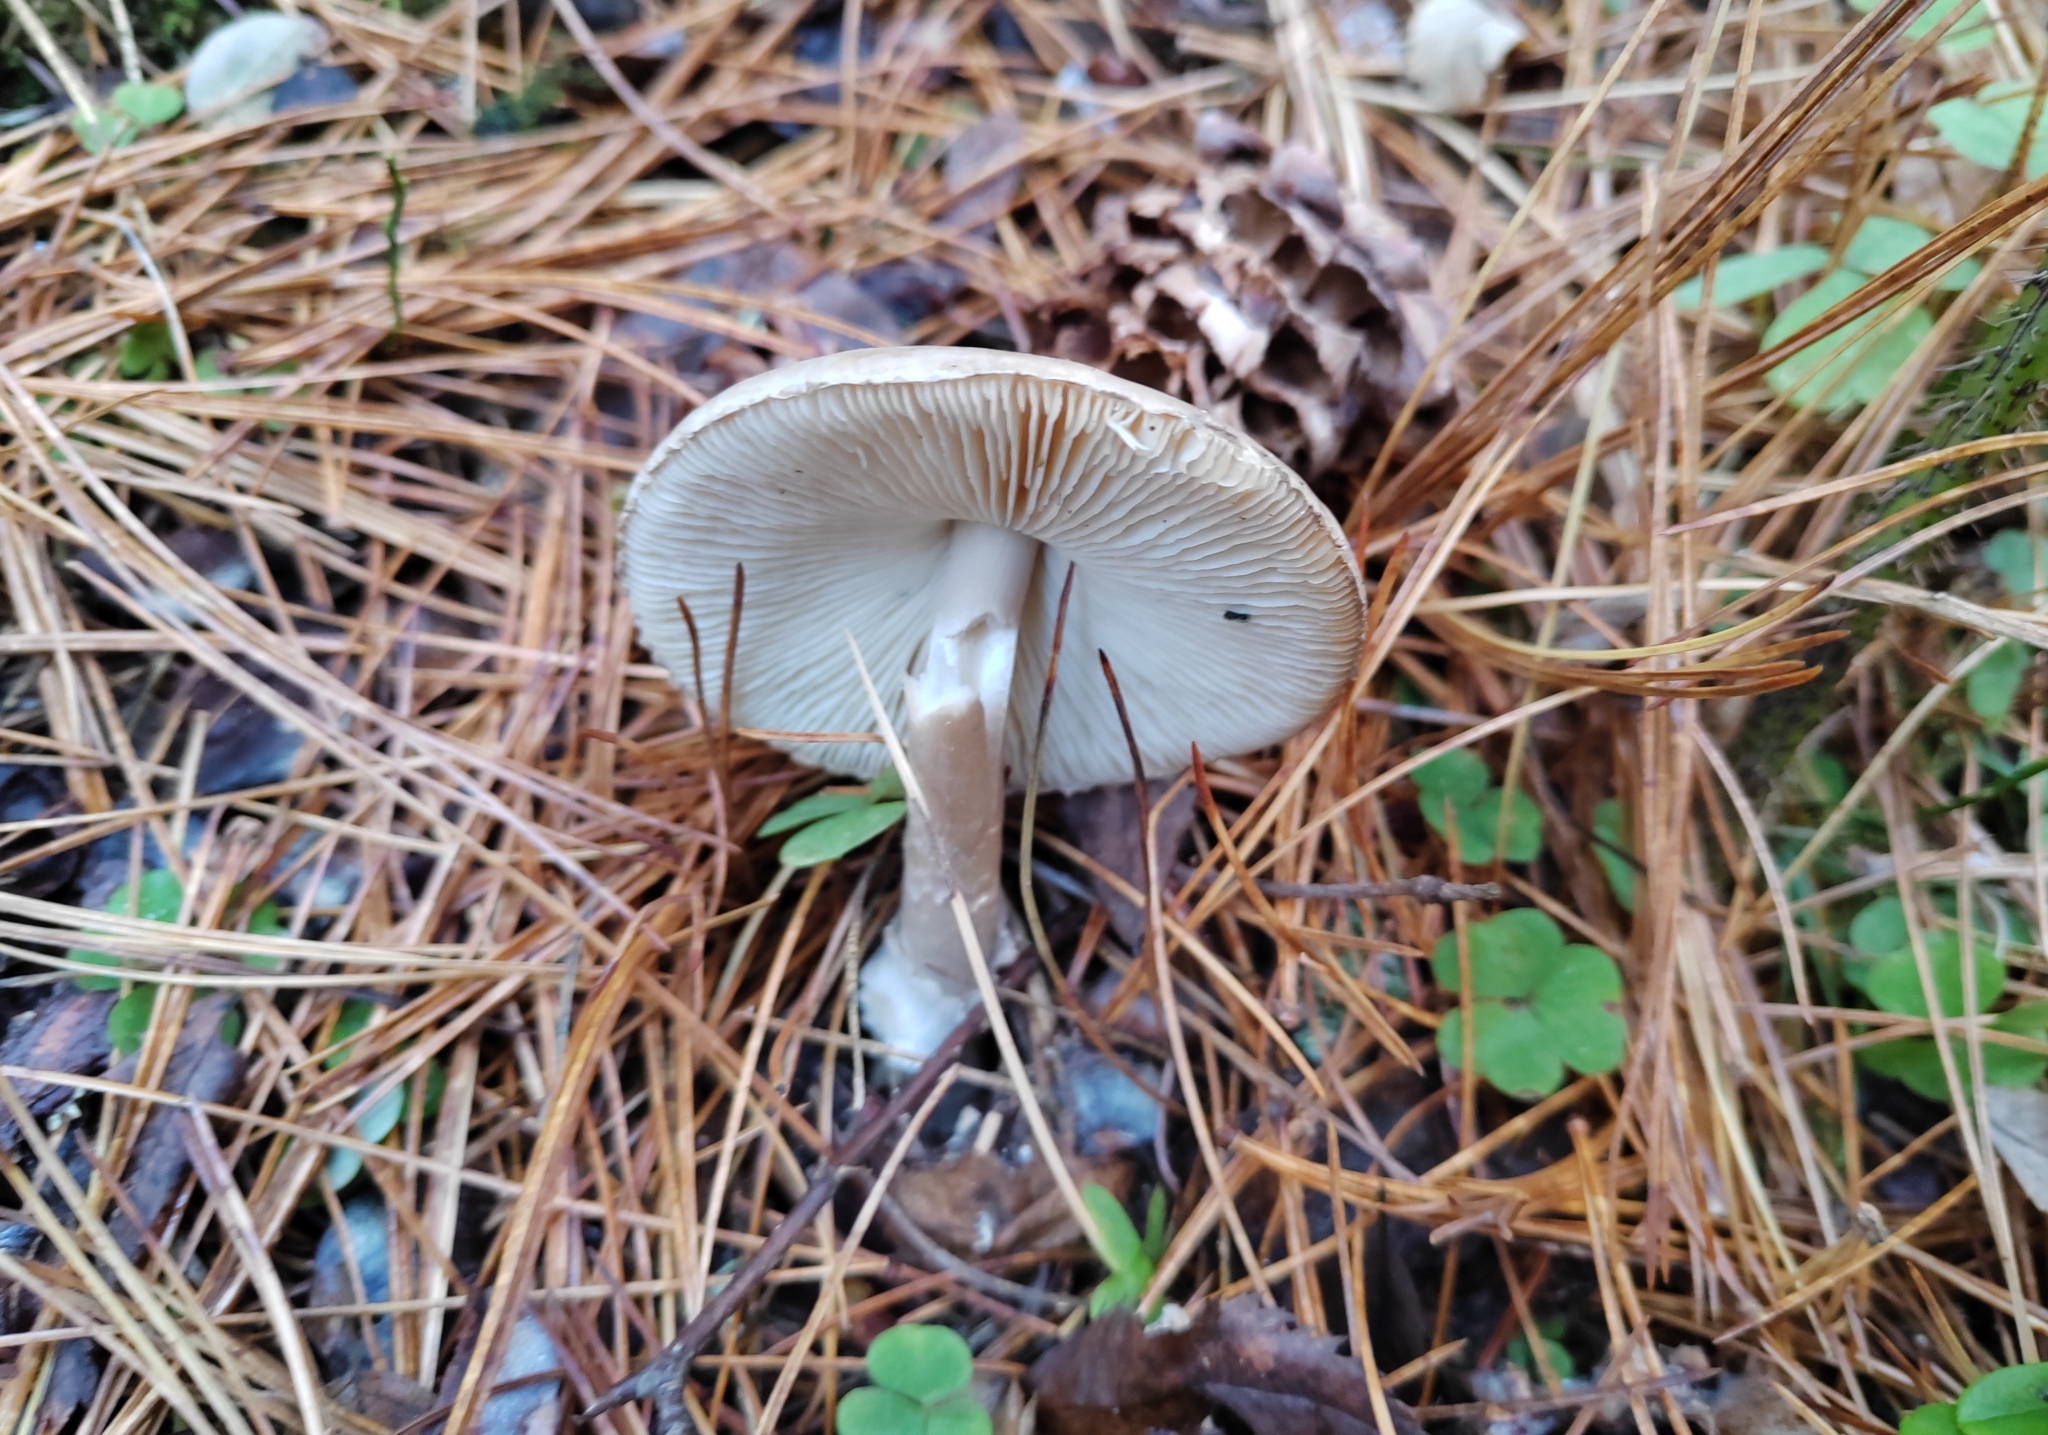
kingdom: Fungi
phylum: Basidiomycota
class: Agaricomycetes
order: Agaricales
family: Amanitaceae
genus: Amanita
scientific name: Amanita porphyria
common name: Grey veiled amanita
